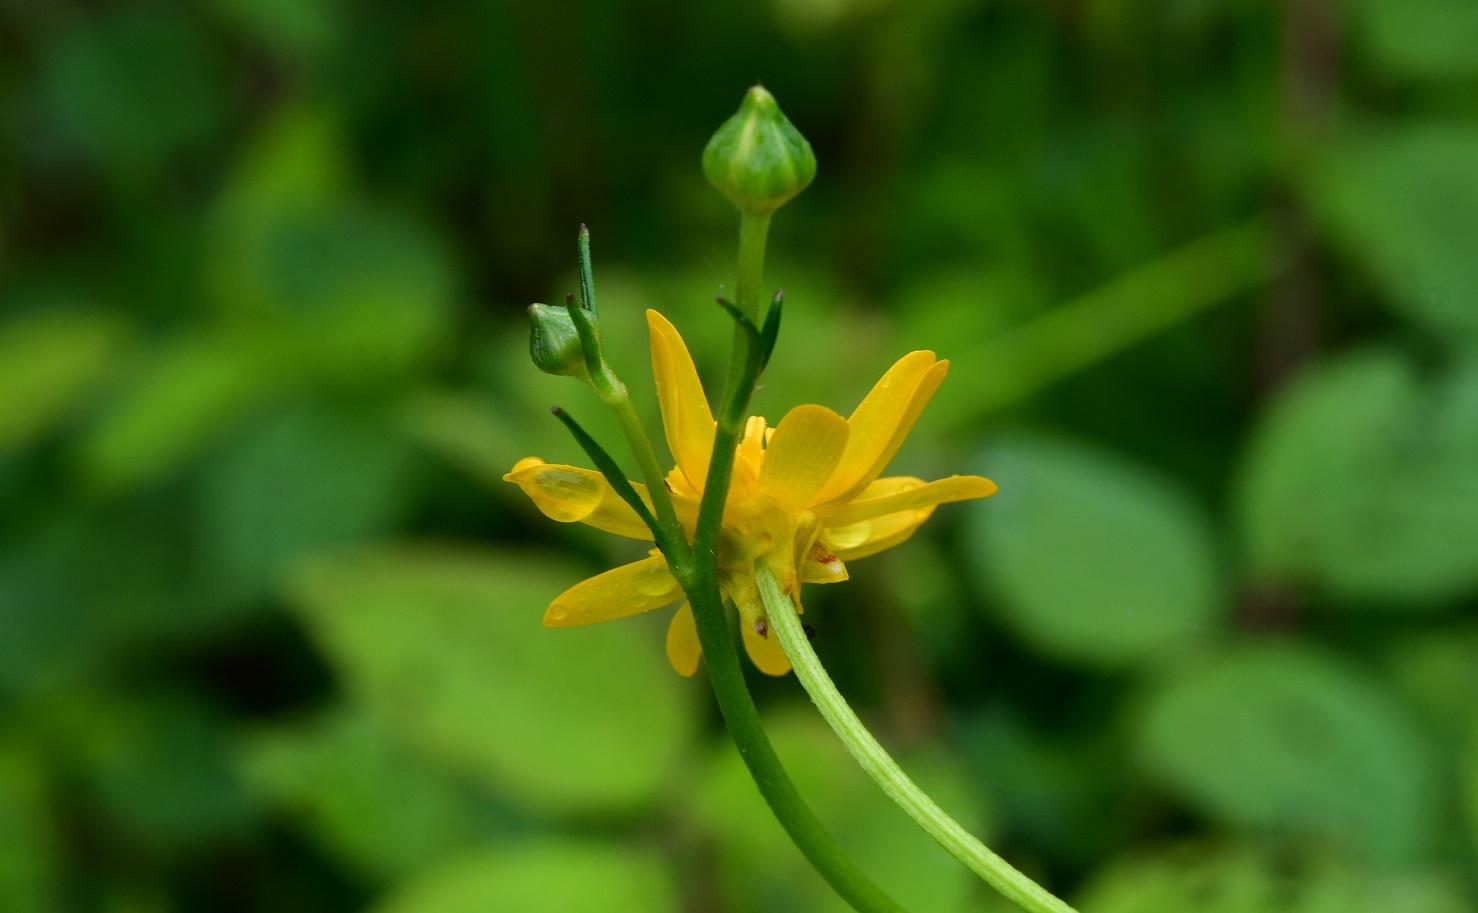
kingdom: Plantae
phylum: Tracheophyta
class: Magnoliopsida
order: Ranunculales
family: Ranunculaceae
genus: Ranunculus
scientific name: Ranunculus petiolaris
